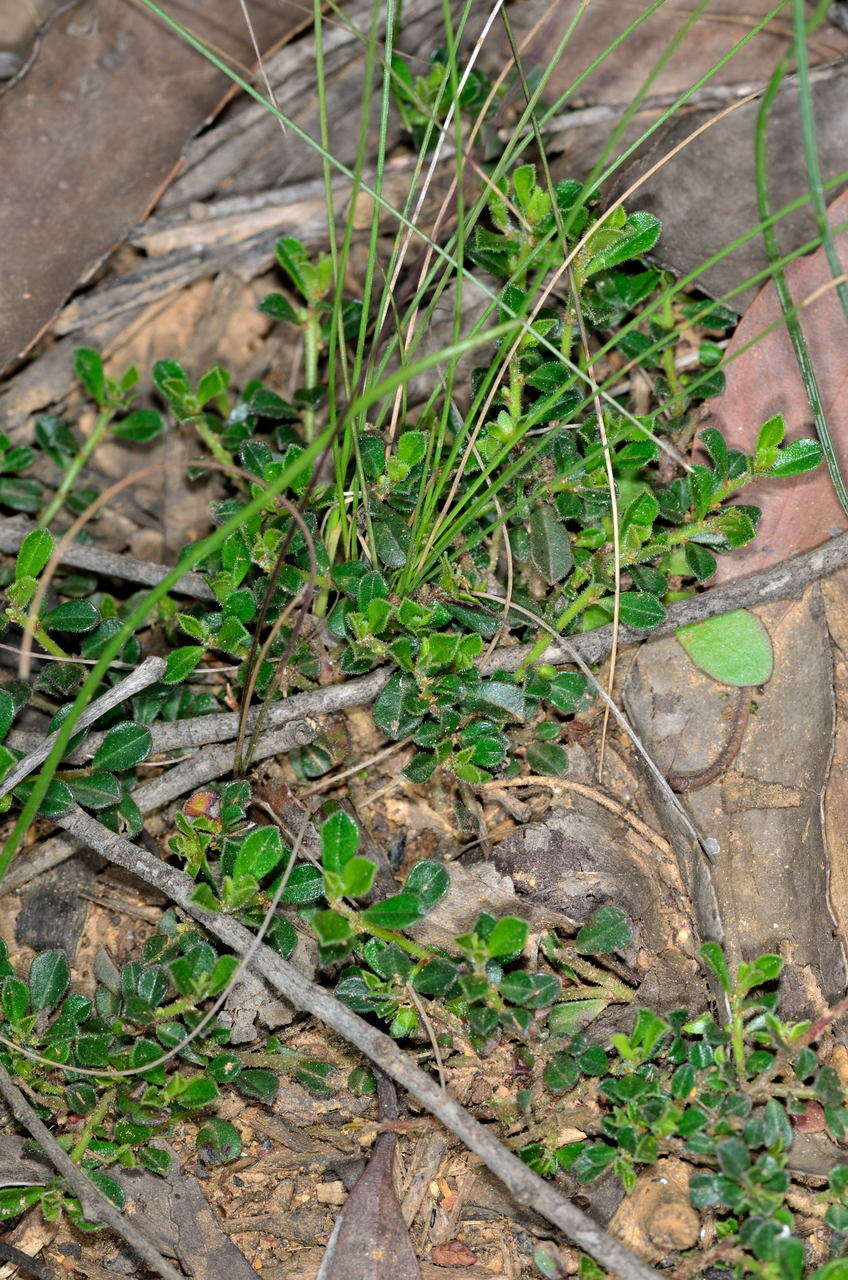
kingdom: Plantae
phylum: Tracheophyta
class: Magnoliopsida
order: Malpighiales
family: Phyllanthaceae
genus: Phyllanthus
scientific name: Phyllanthus hirtellus
